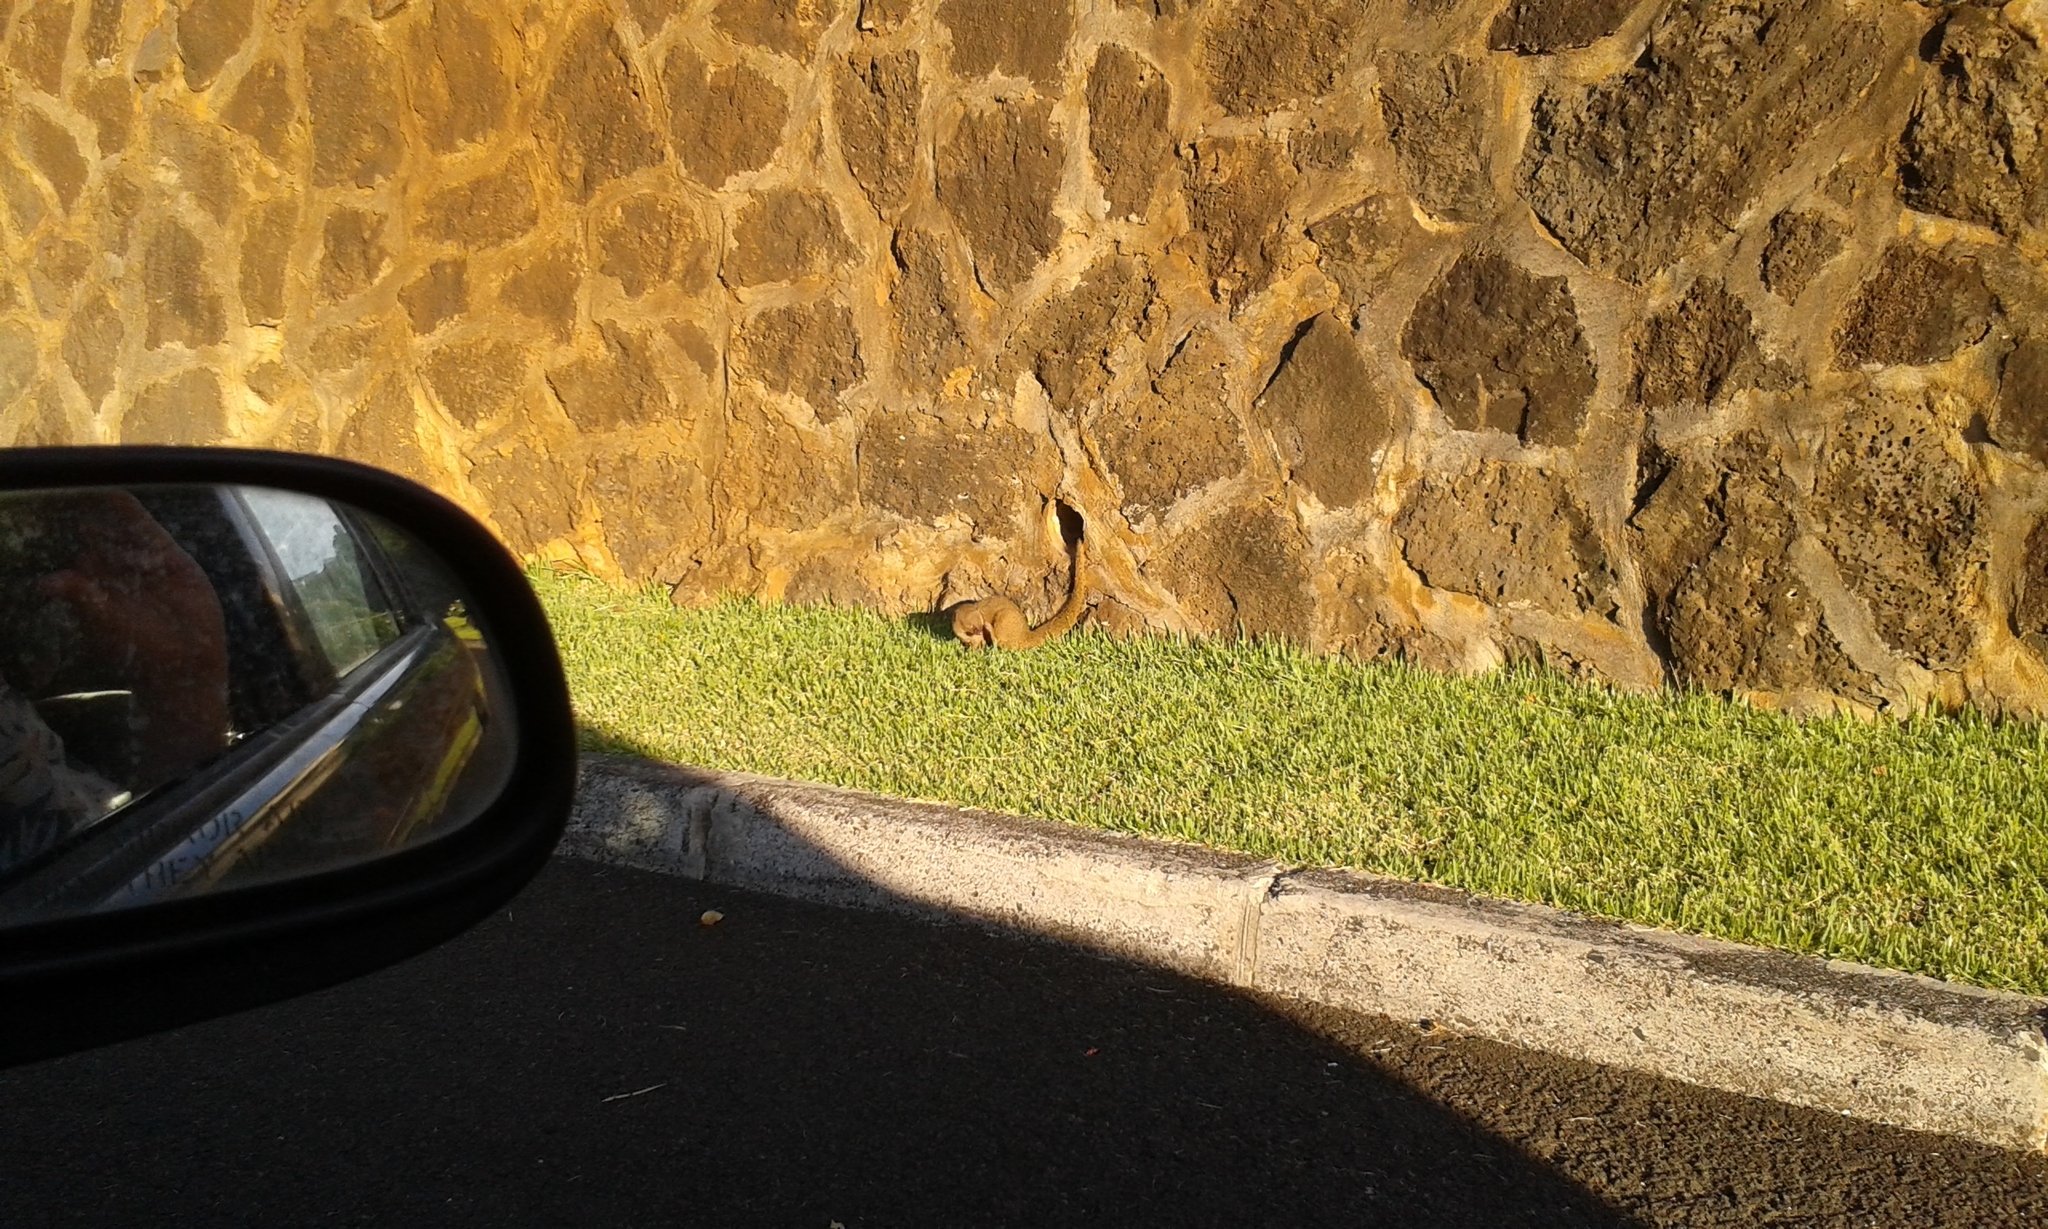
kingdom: Animalia
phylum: Chordata
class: Mammalia
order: Carnivora
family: Herpestidae
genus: Herpestes
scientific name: Herpestes javanicus
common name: Small asian mongoose
